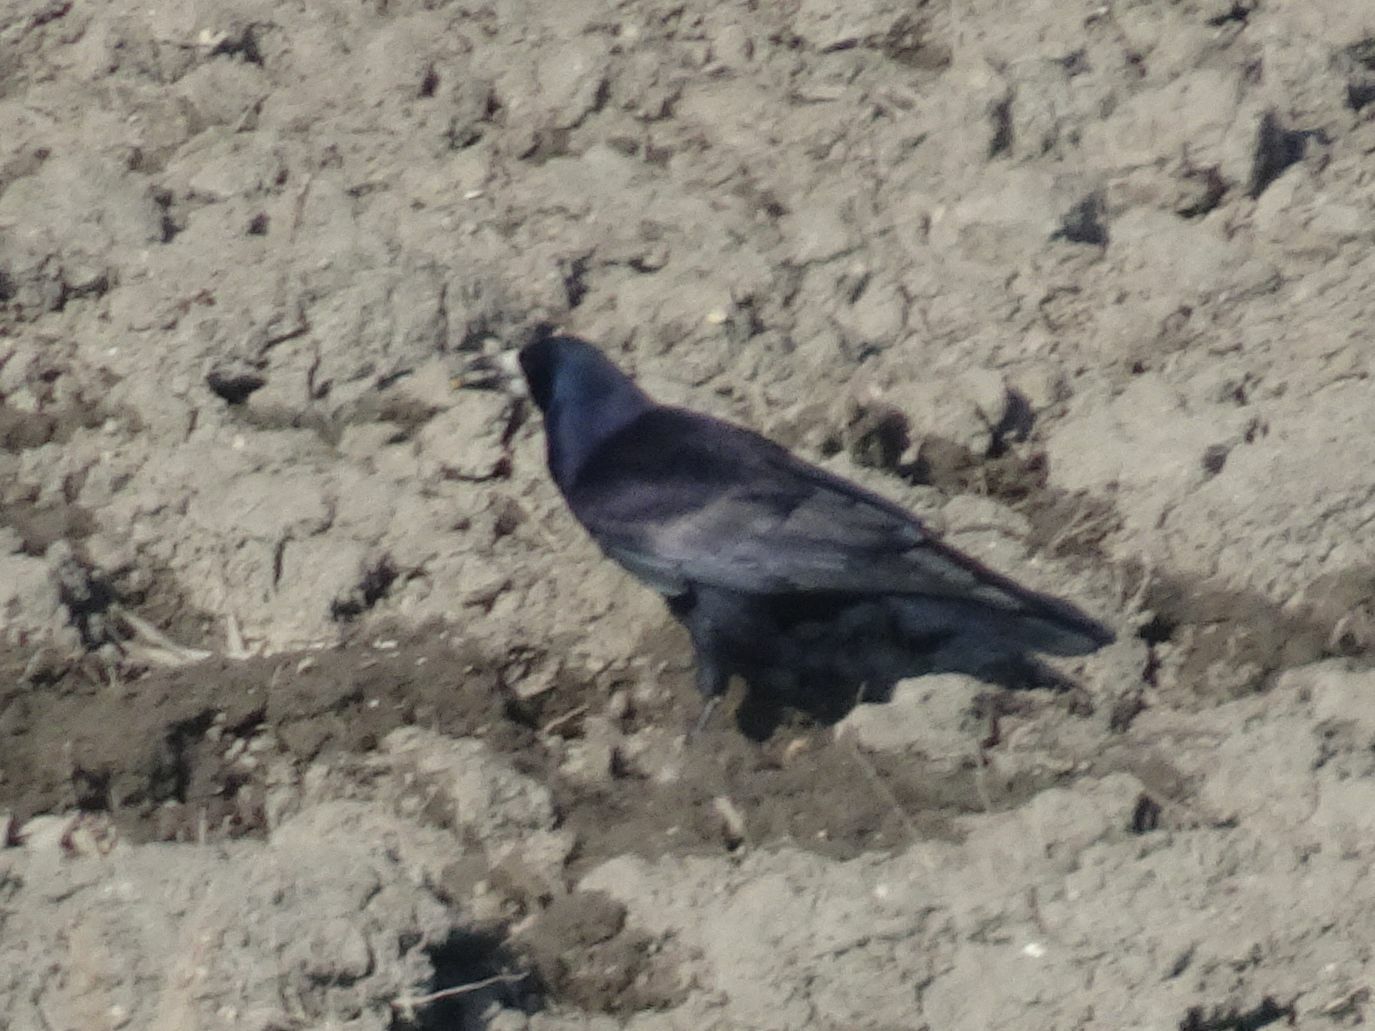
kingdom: Animalia
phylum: Chordata
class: Aves
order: Passeriformes
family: Corvidae
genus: Corvus
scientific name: Corvus frugilegus
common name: Rook
